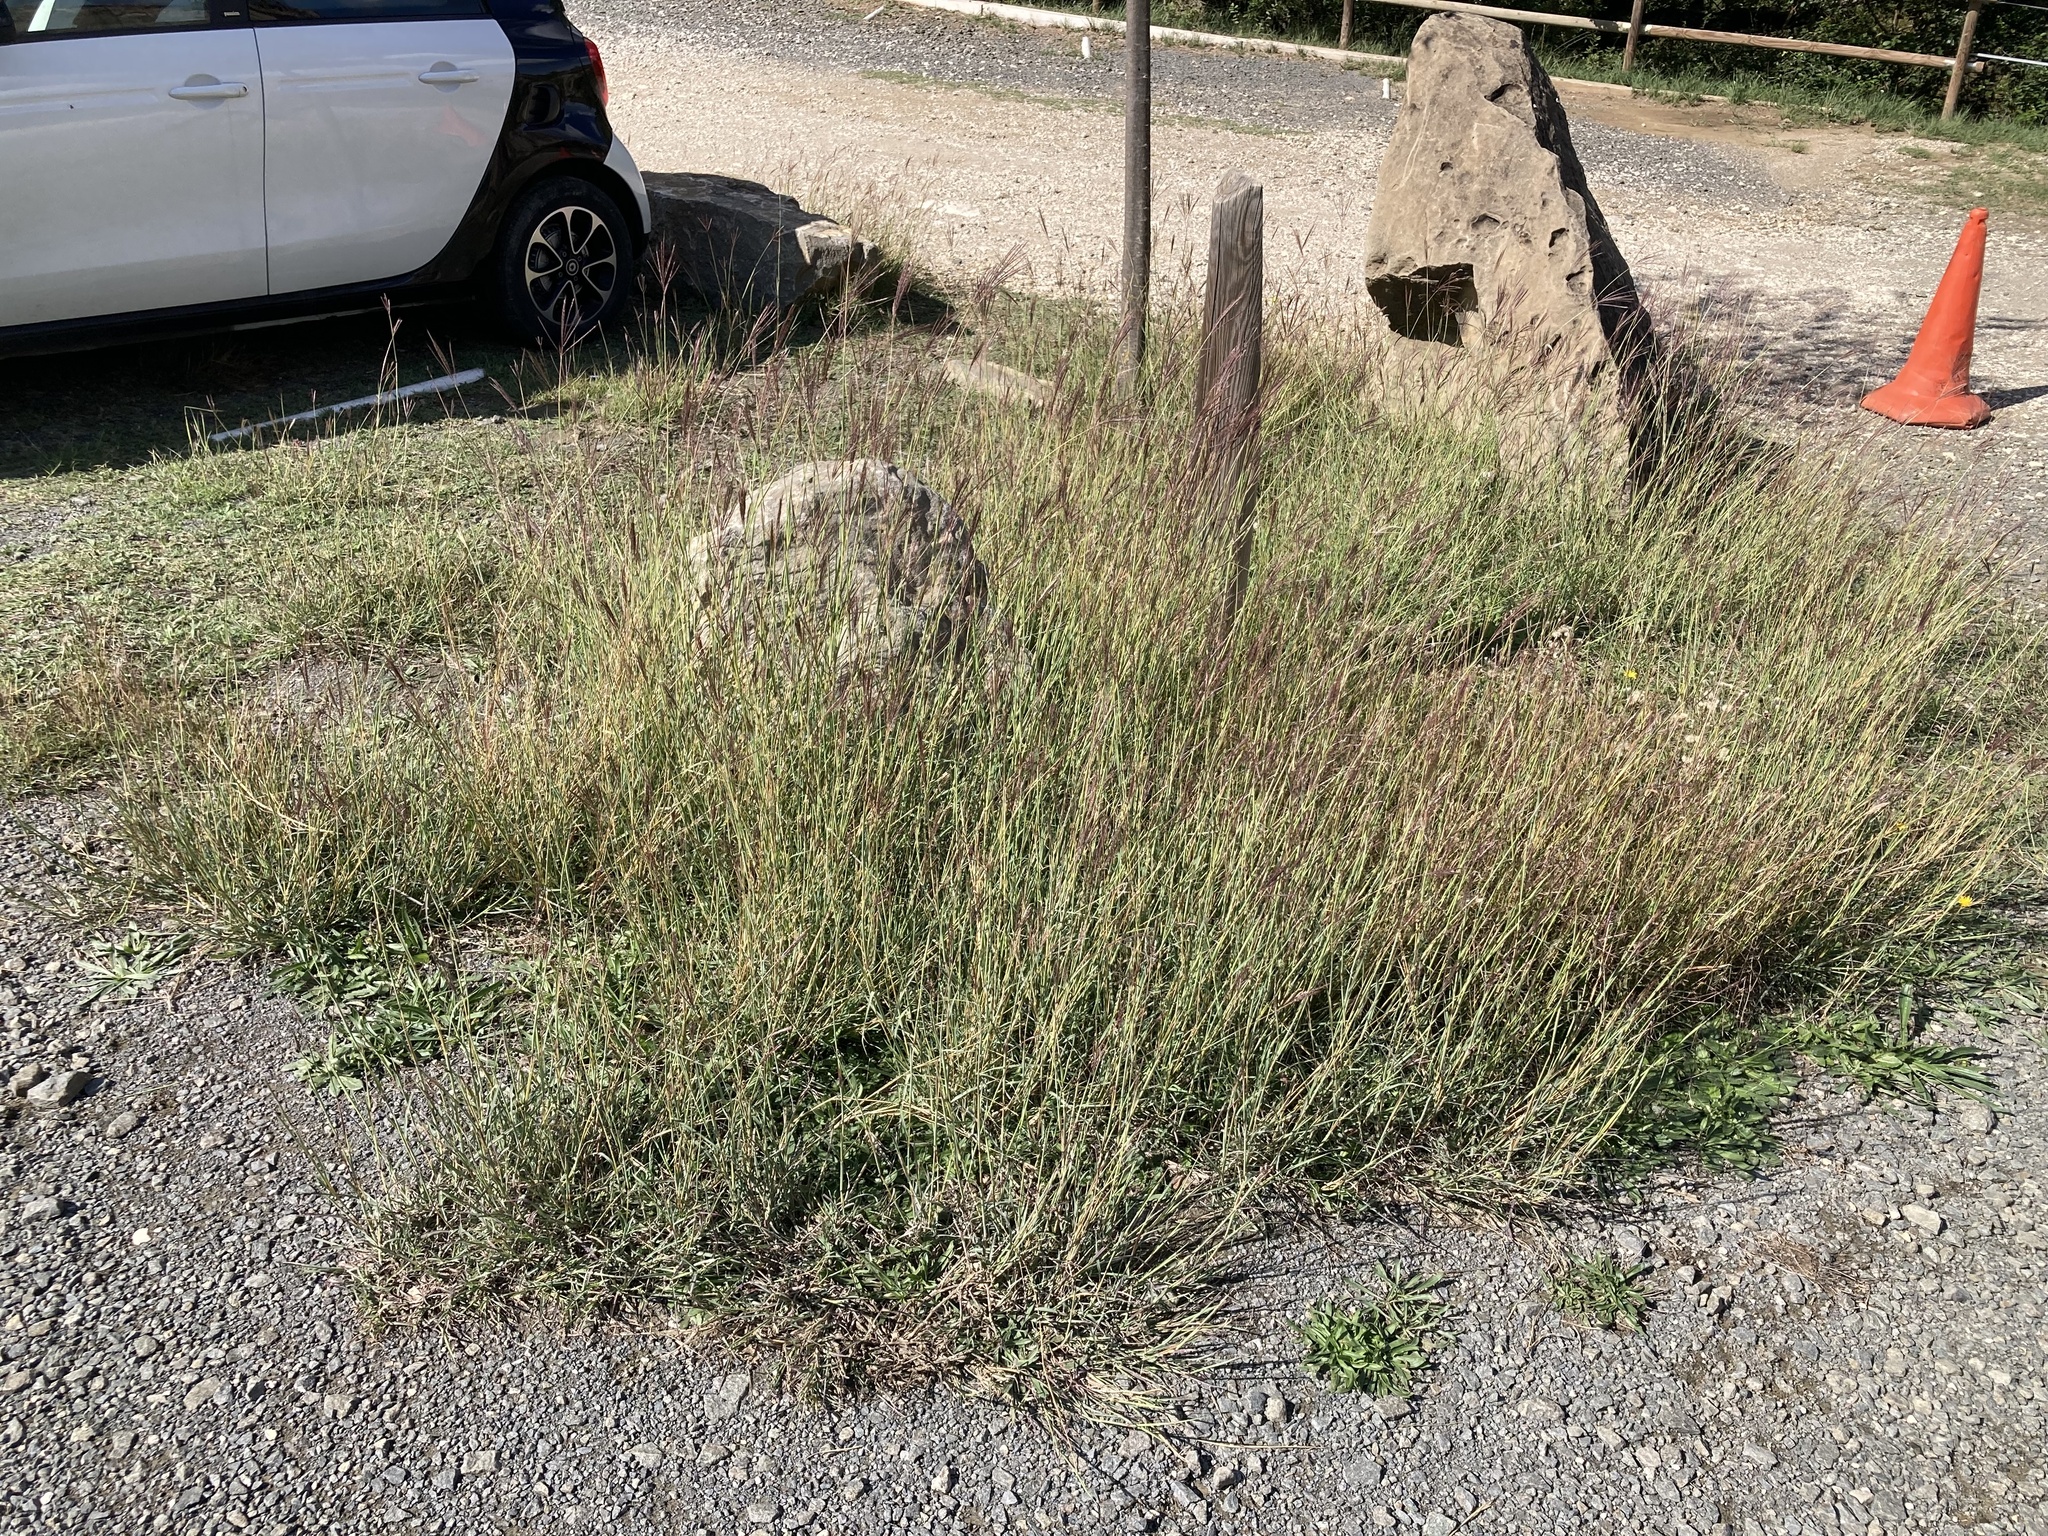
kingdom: Plantae
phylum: Tracheophyta
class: Liliopsida
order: Poales
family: Poaceae
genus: Bothriochloa
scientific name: Bothriochloa ischaemum
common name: Yellow bluestem
